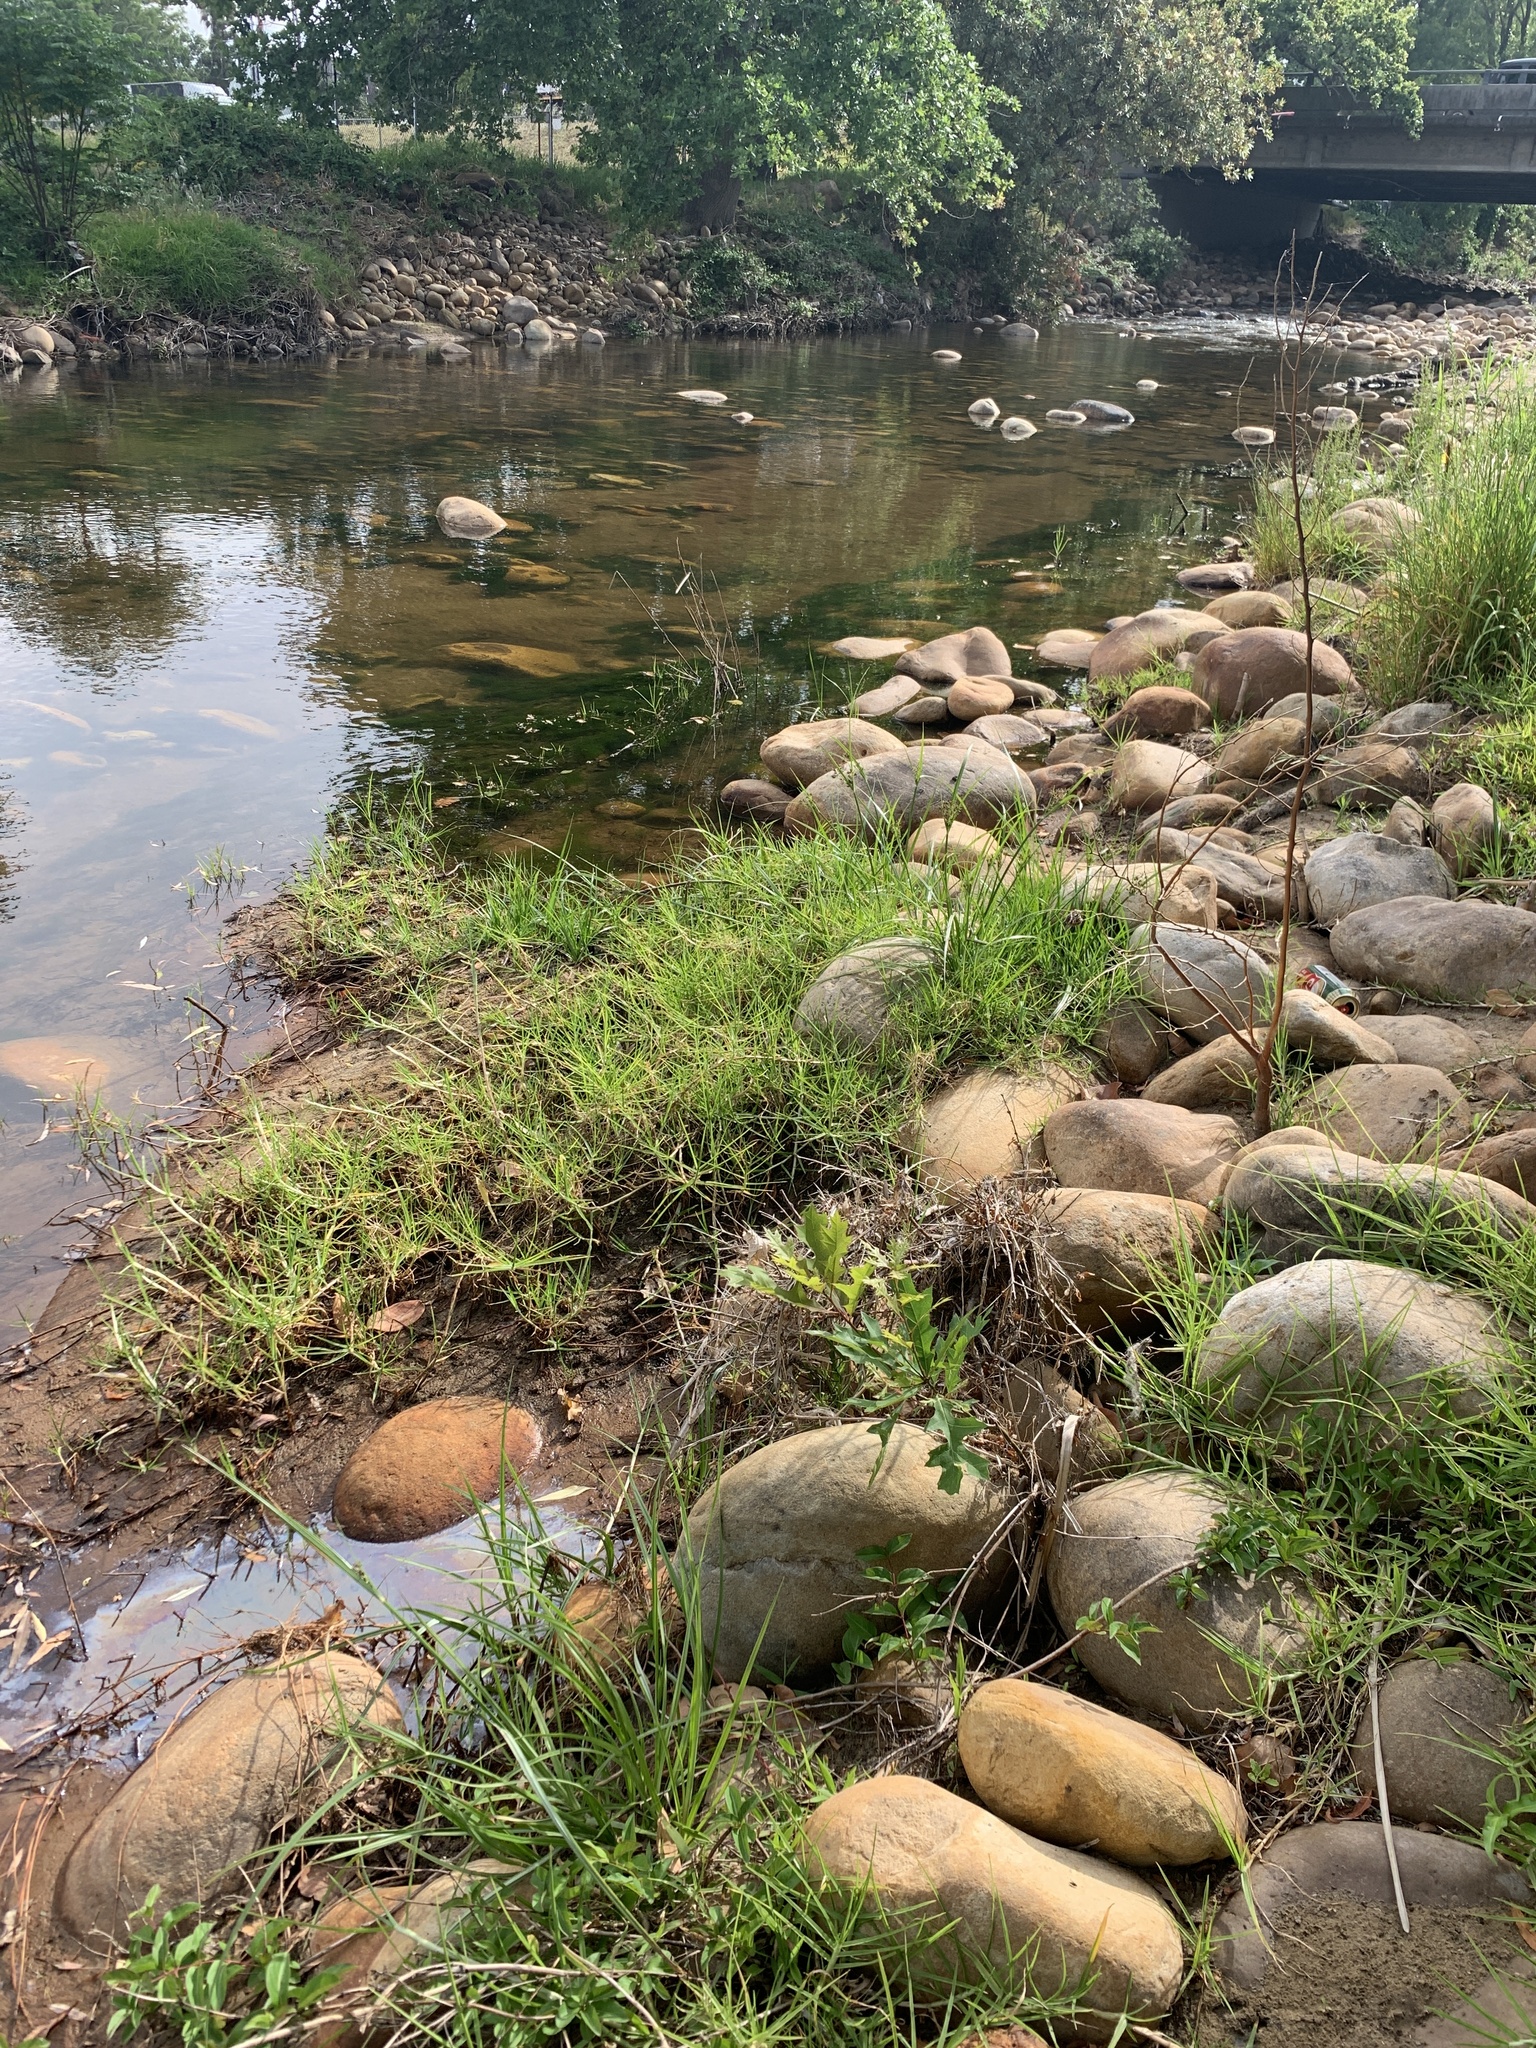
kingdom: Plantae
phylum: Tracheophyta
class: Magnoliopsida
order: Fagales
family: Fagaceae
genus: Quercus
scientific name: Quercus palustris
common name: Pin oak
